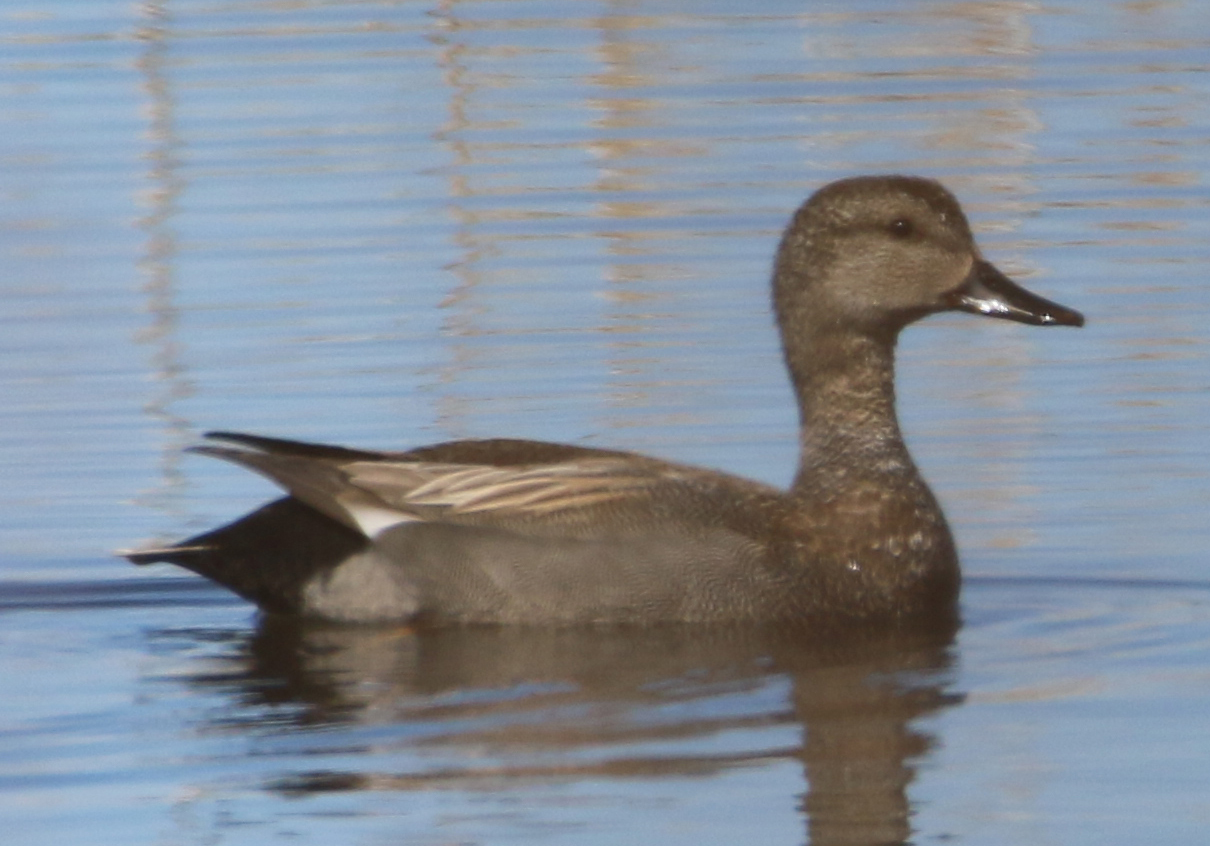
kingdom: Animalia
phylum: Chordata
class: Aves
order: Anseriformes
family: Anatidae
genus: Mareca
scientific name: Mareca strepera
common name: Gadwall
